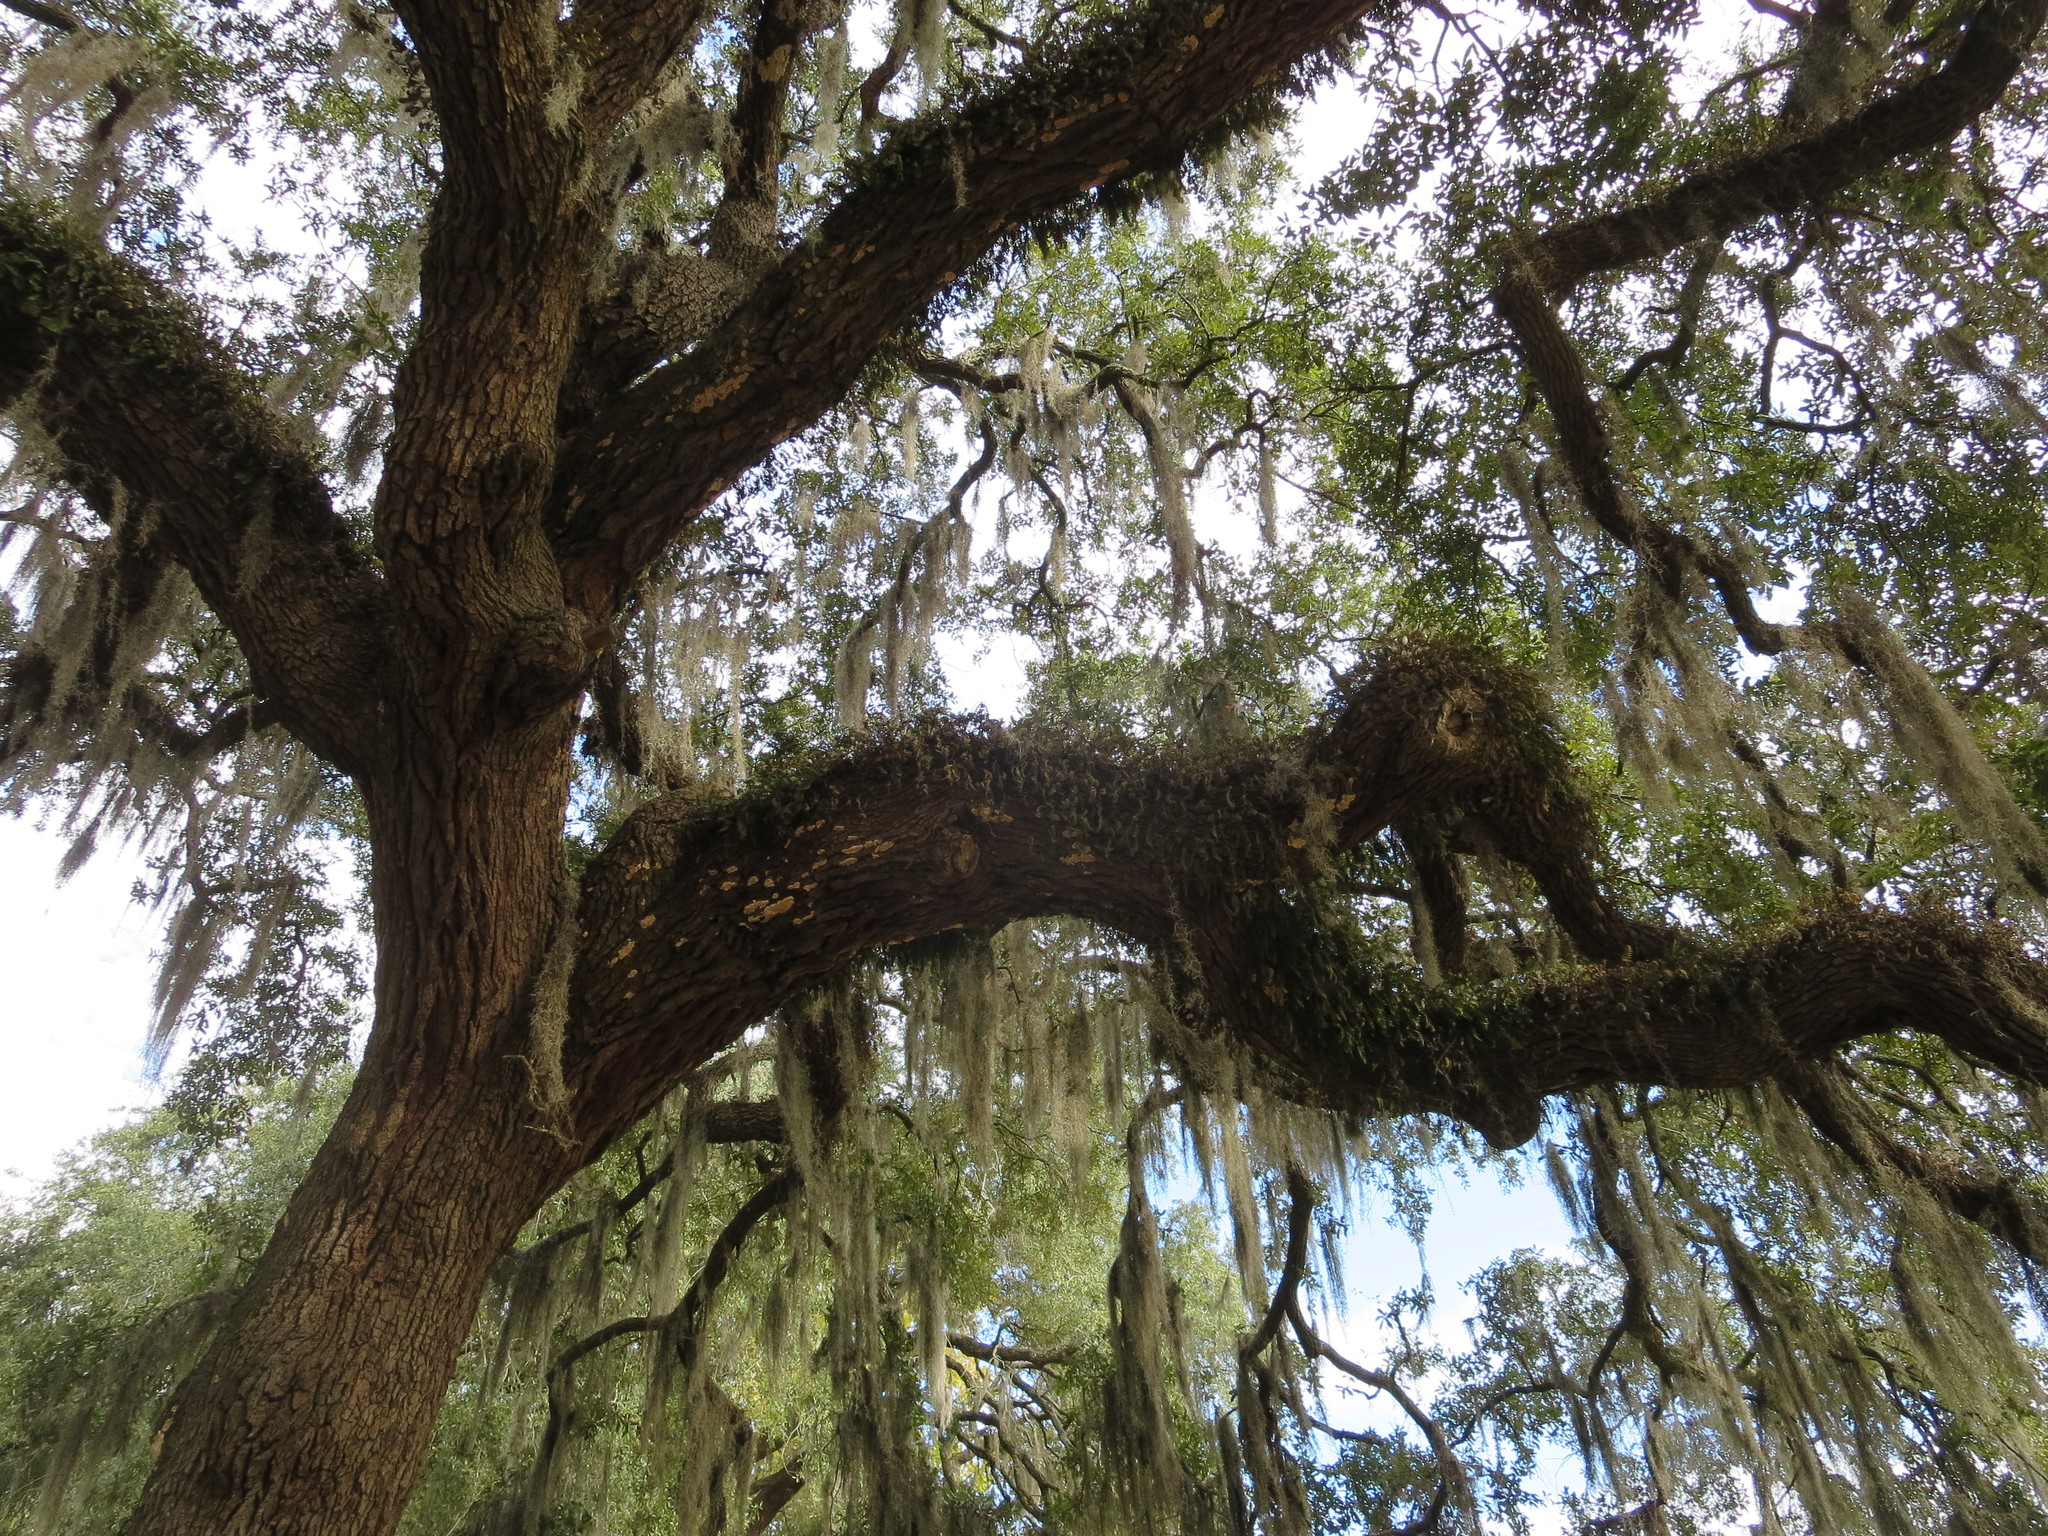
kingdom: Plantae
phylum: Tracheophyta
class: Liliopsida
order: Poales
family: Bromeliaceae
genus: Tillandsia
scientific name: Tillandsia usneoides
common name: Spanish moss
